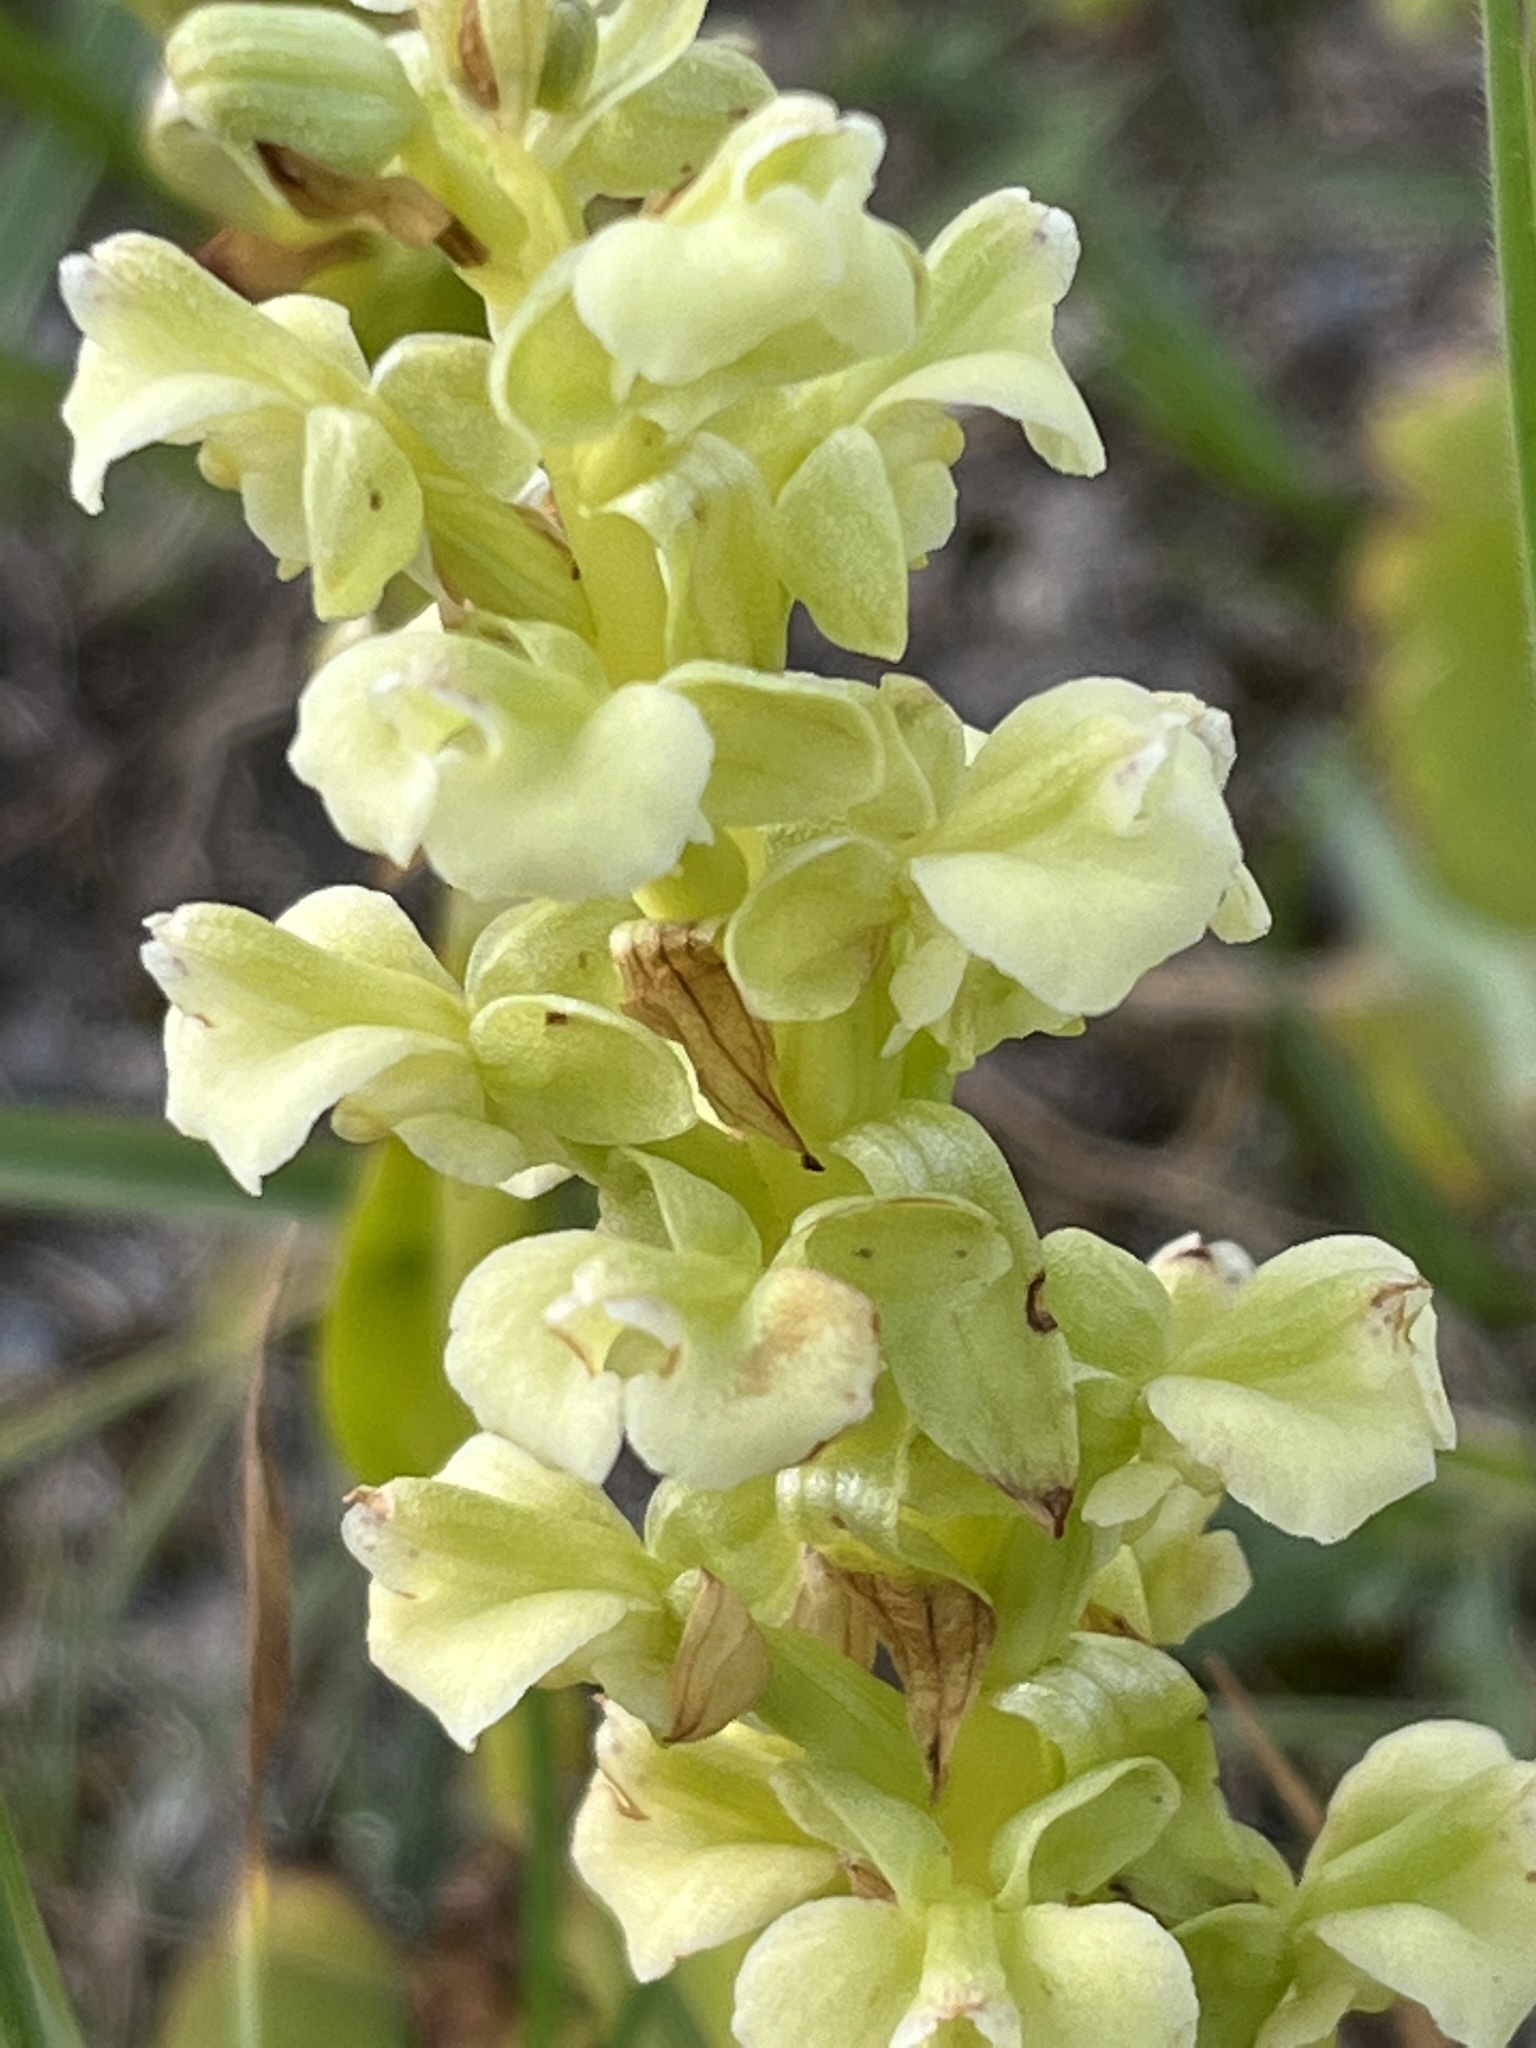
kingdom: Plantae
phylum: Tracheophyta
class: Liliopsida
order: Asparagales
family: Orchidaceae
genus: Pterygodium
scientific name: Pterygodium volucris
